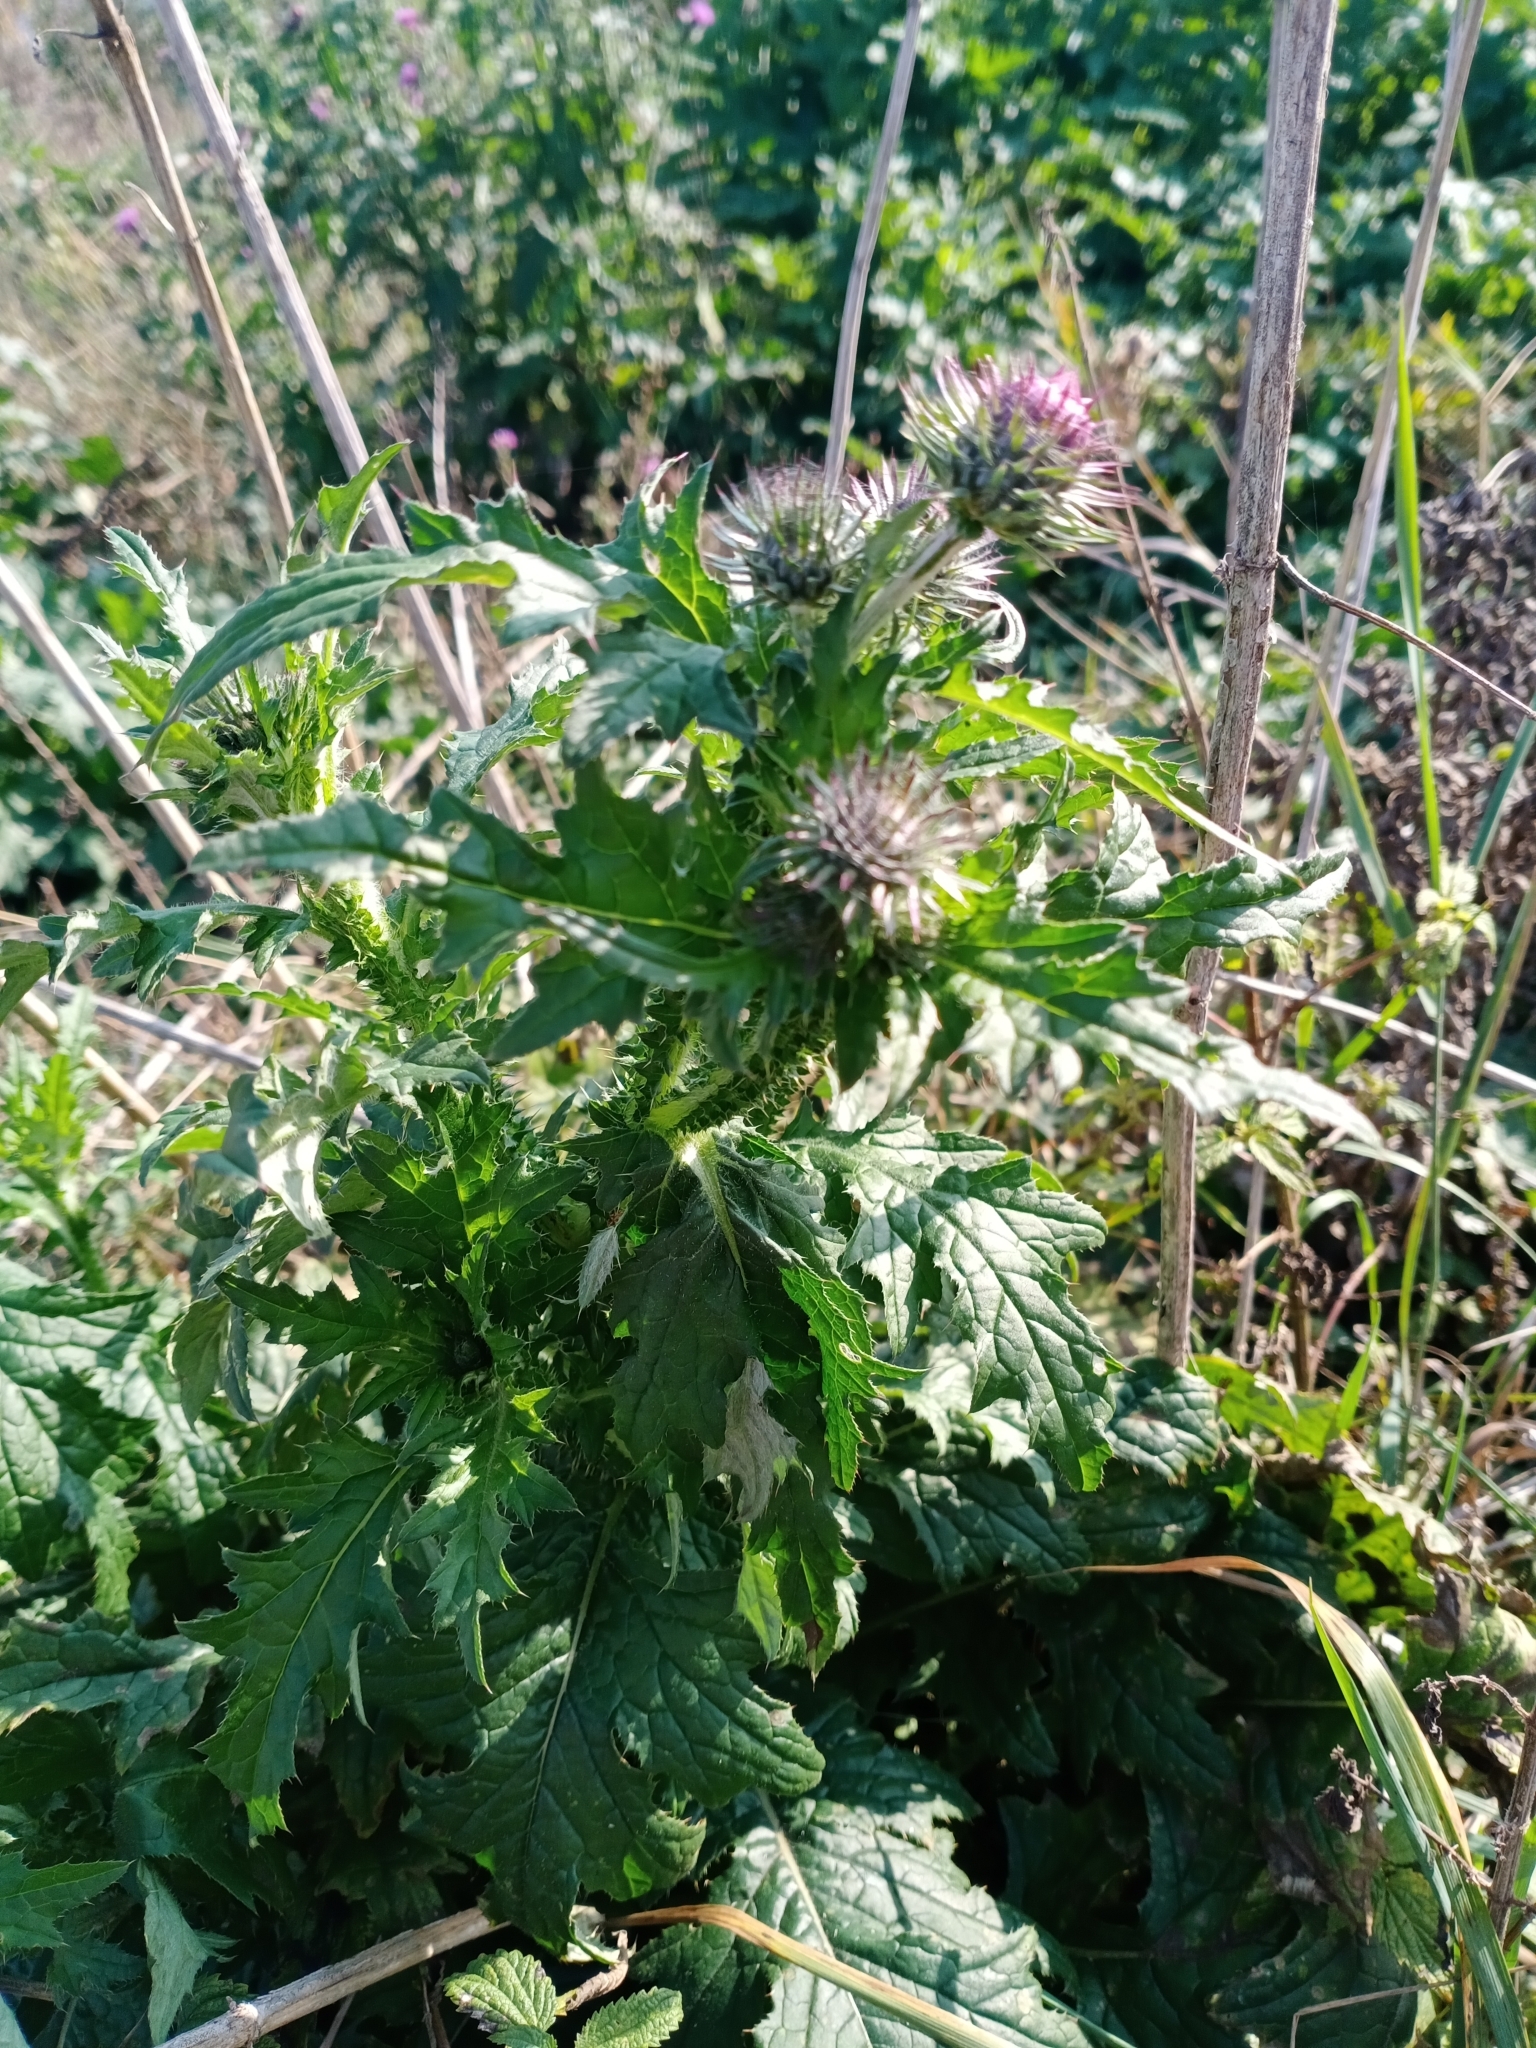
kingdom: Plantae
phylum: Tracheophyta
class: Magnoliopsida
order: Asterales
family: Asteraceae
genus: Carduus
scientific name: Carduus crispus
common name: Welted thistle
